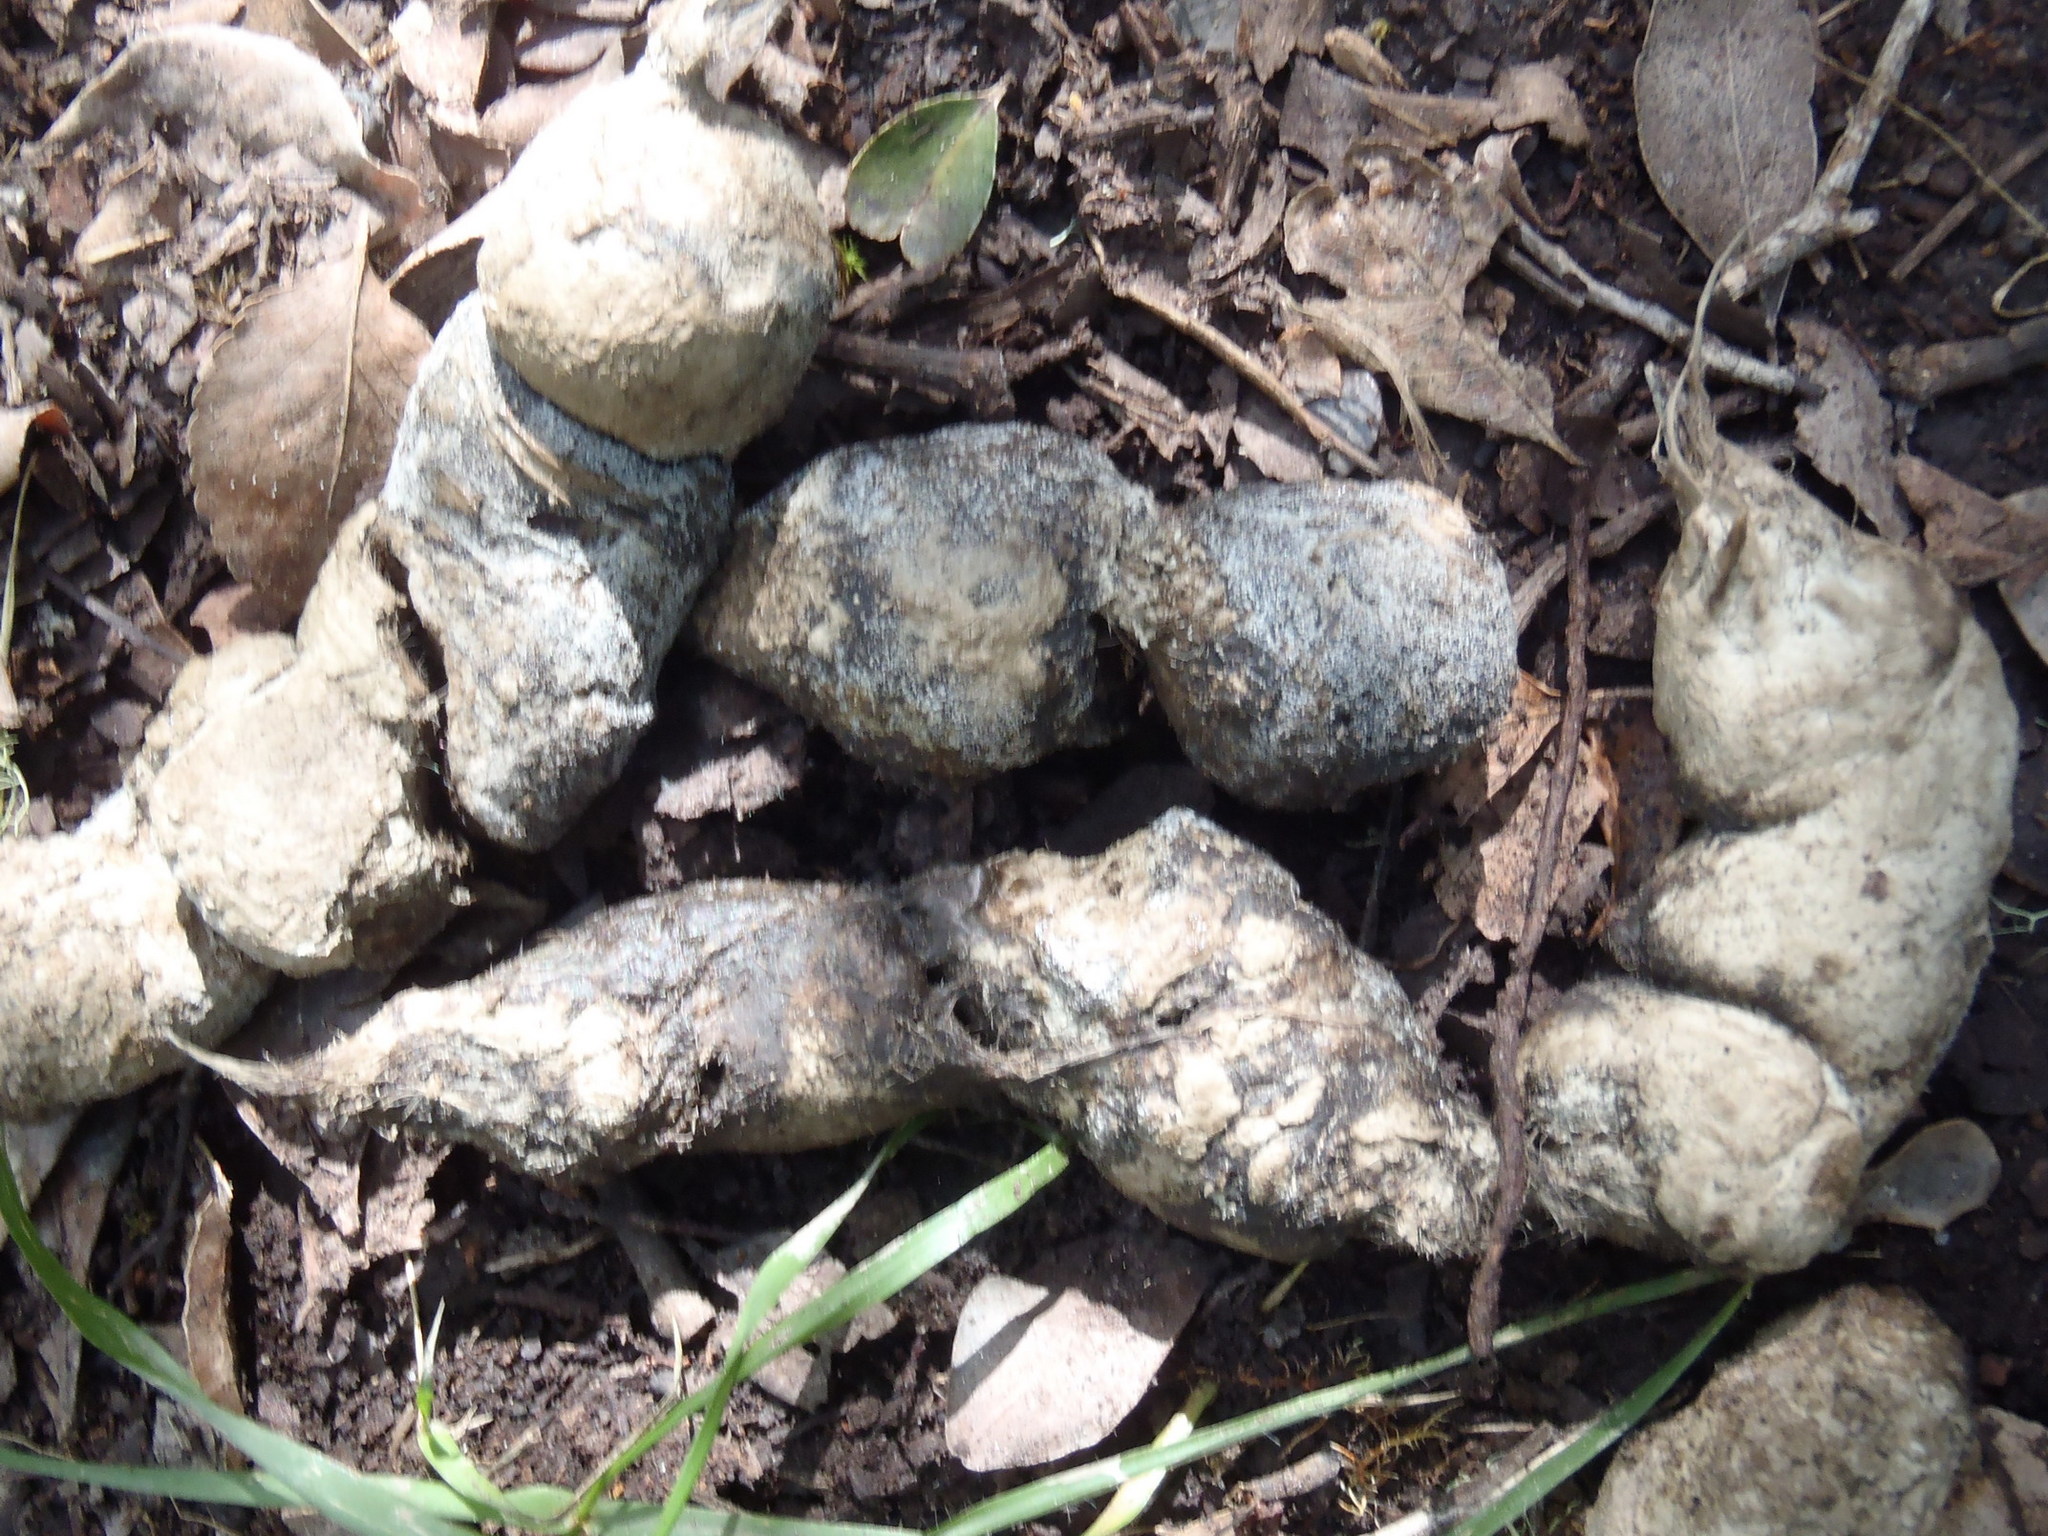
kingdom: Animalia
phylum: Chordata
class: Mammalia
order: Carnivora
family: Felidae
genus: Panthera
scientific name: Panthera pardus
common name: Leopard
